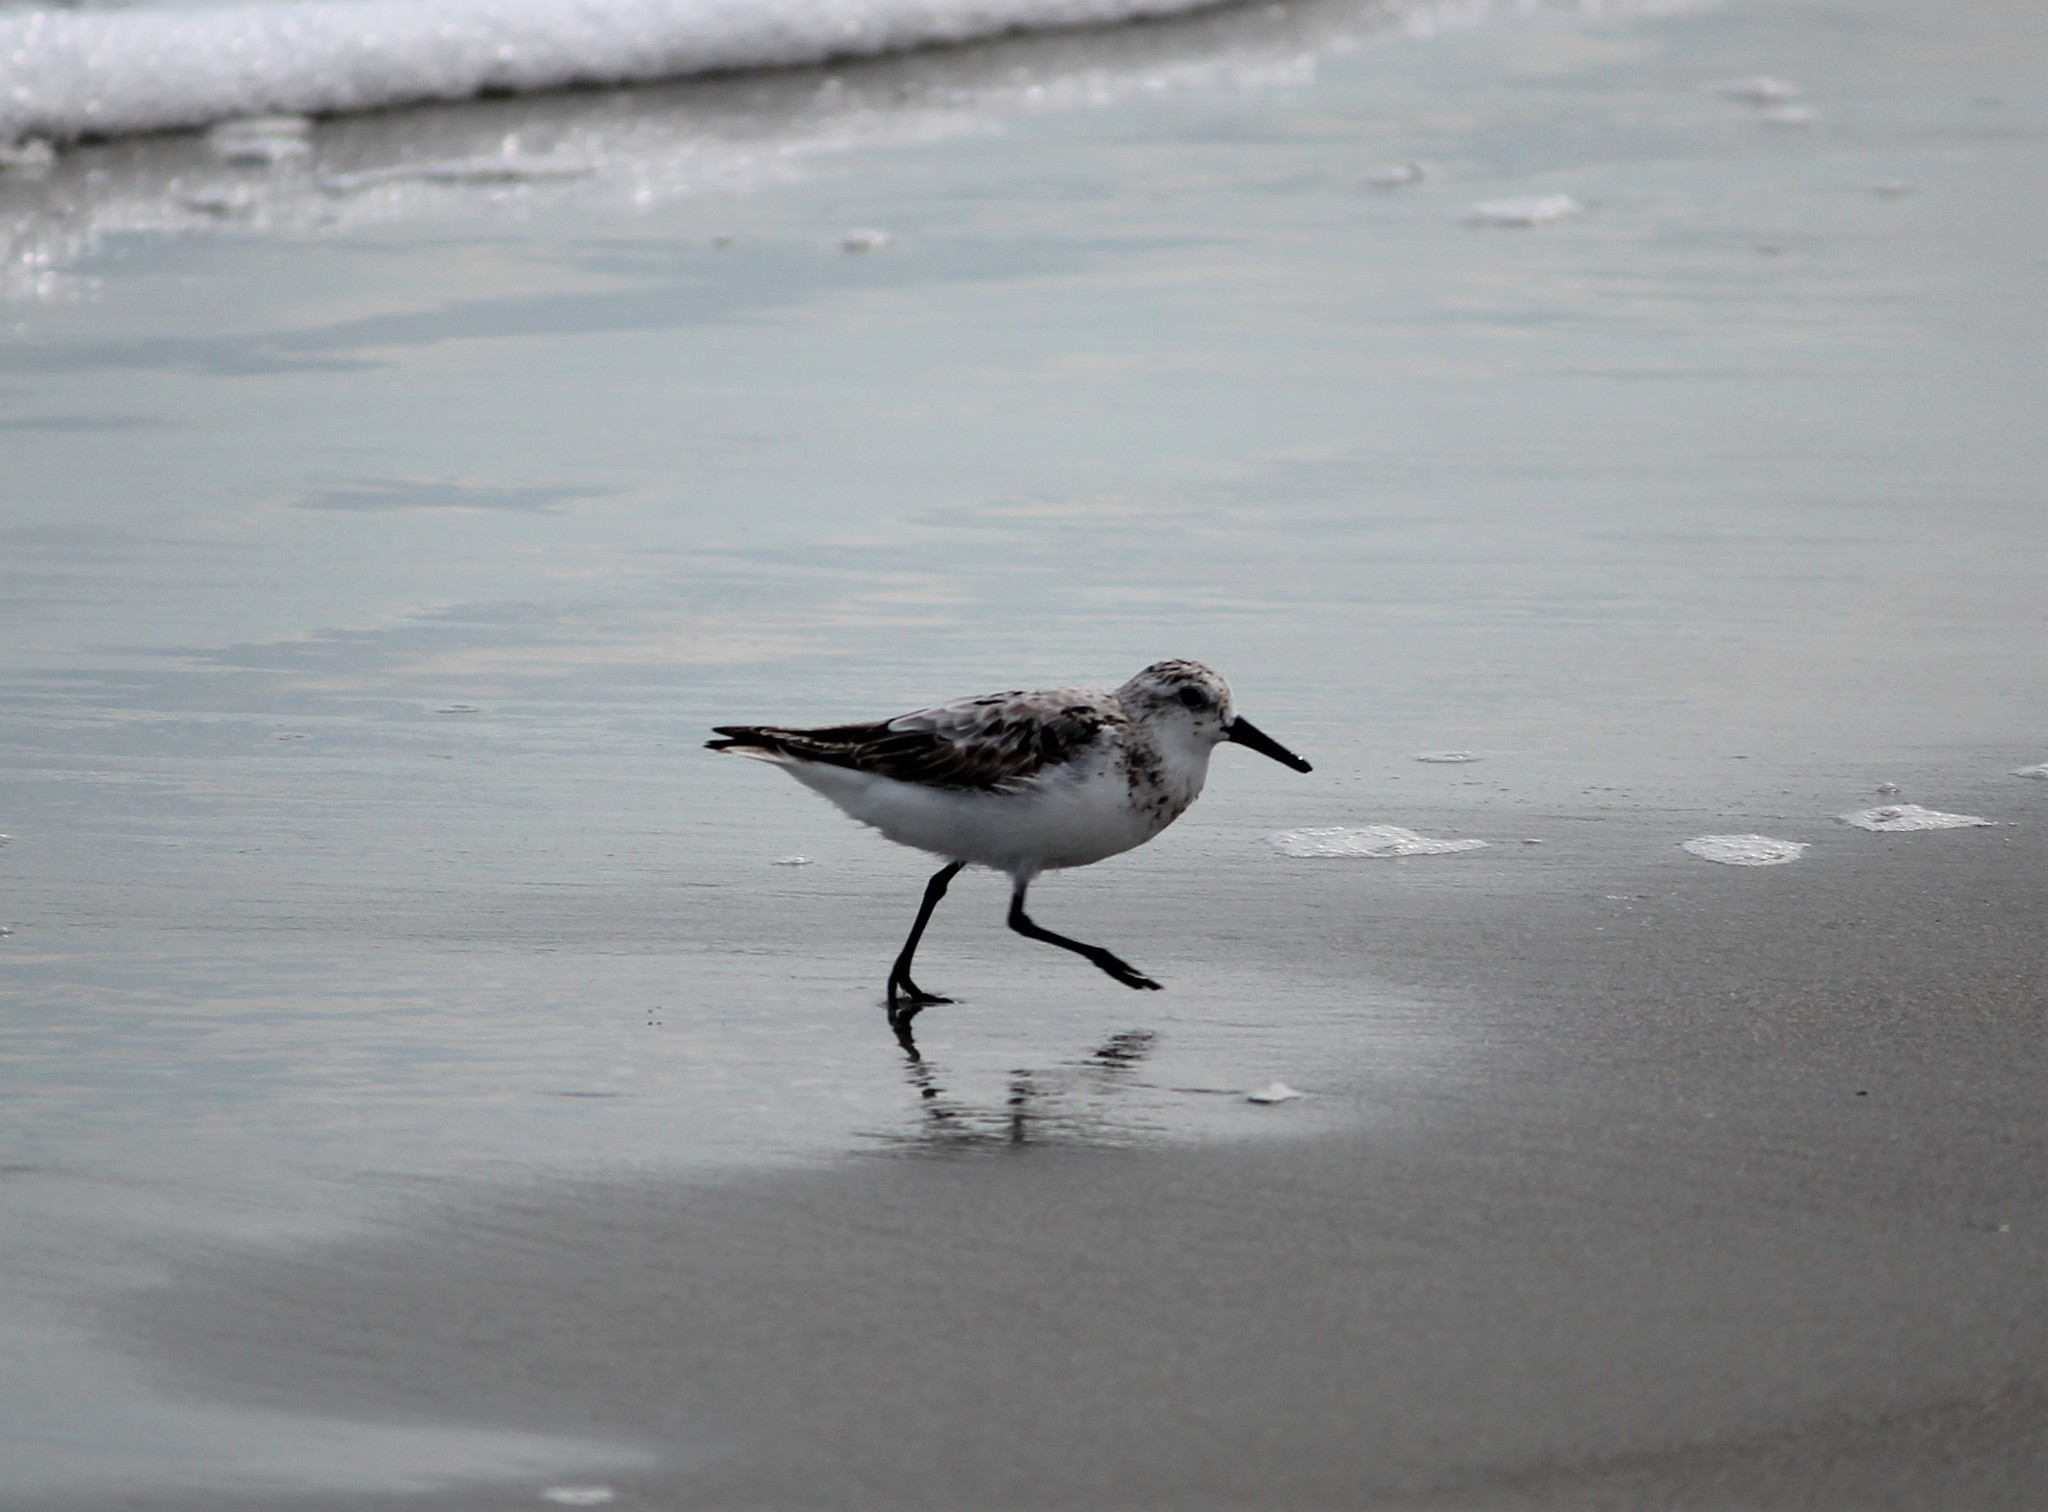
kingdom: Animalia
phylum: Chordata
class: Aves
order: Charadriiformes
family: Scolopacidae
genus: Calidris
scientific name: Calidris alba
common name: Sanderling
